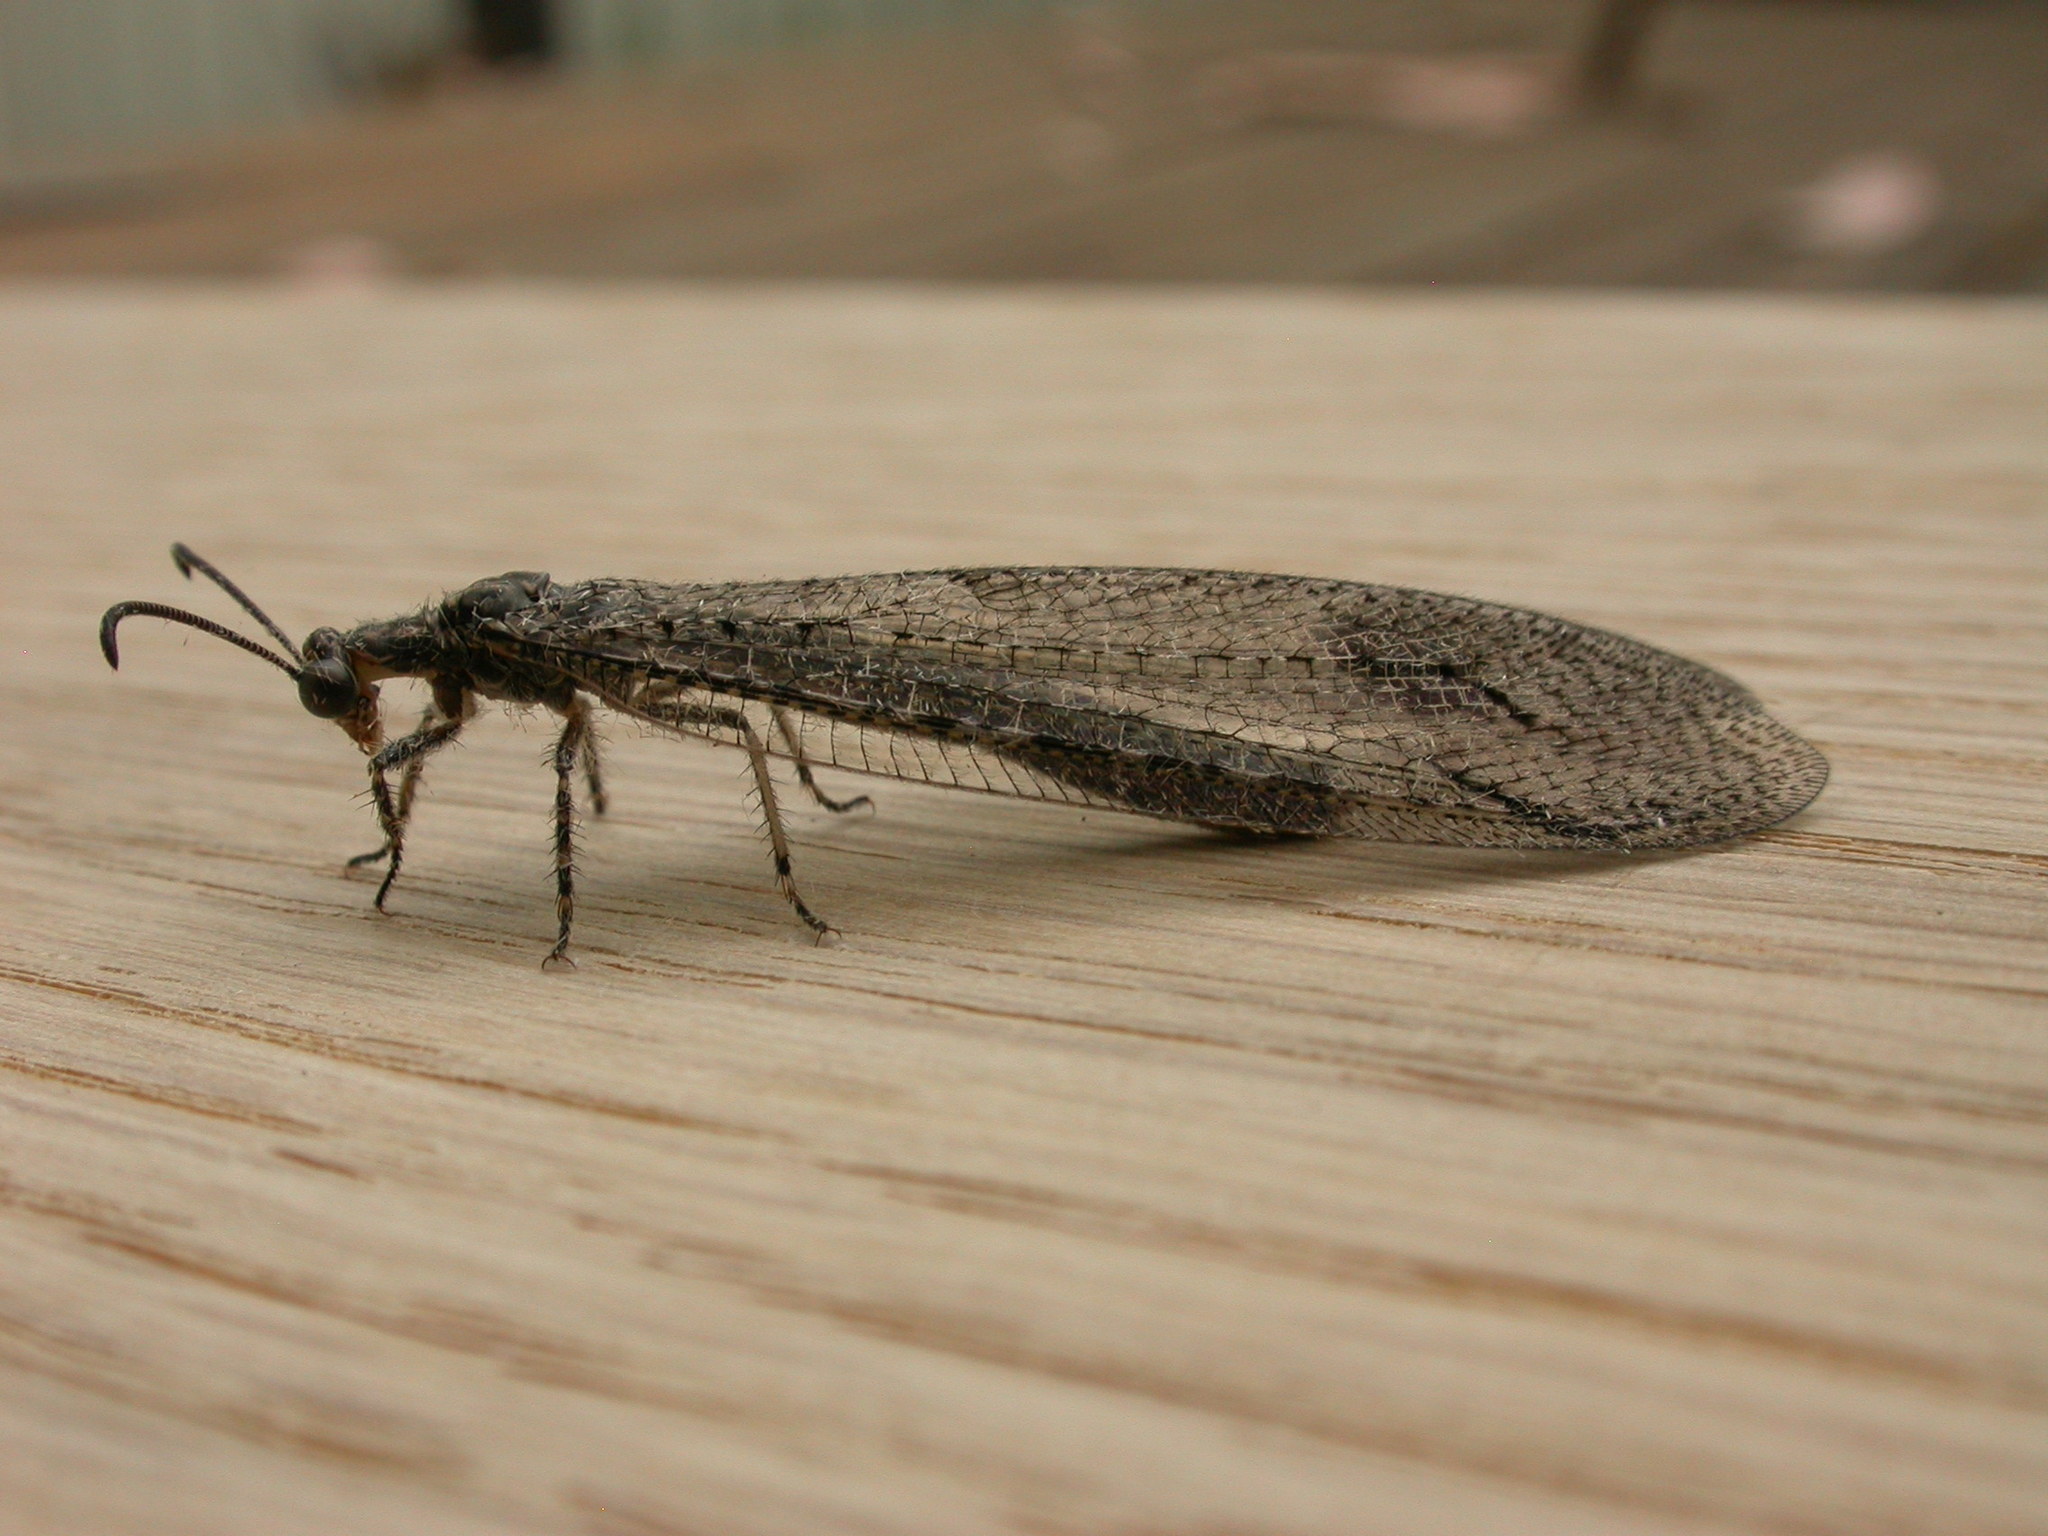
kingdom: Animalia
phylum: Arthropoda
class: Insecta
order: Neuroptera
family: Myrmeleontidae
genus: Austrogymnocnemia
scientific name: Austrogymnocnemia
